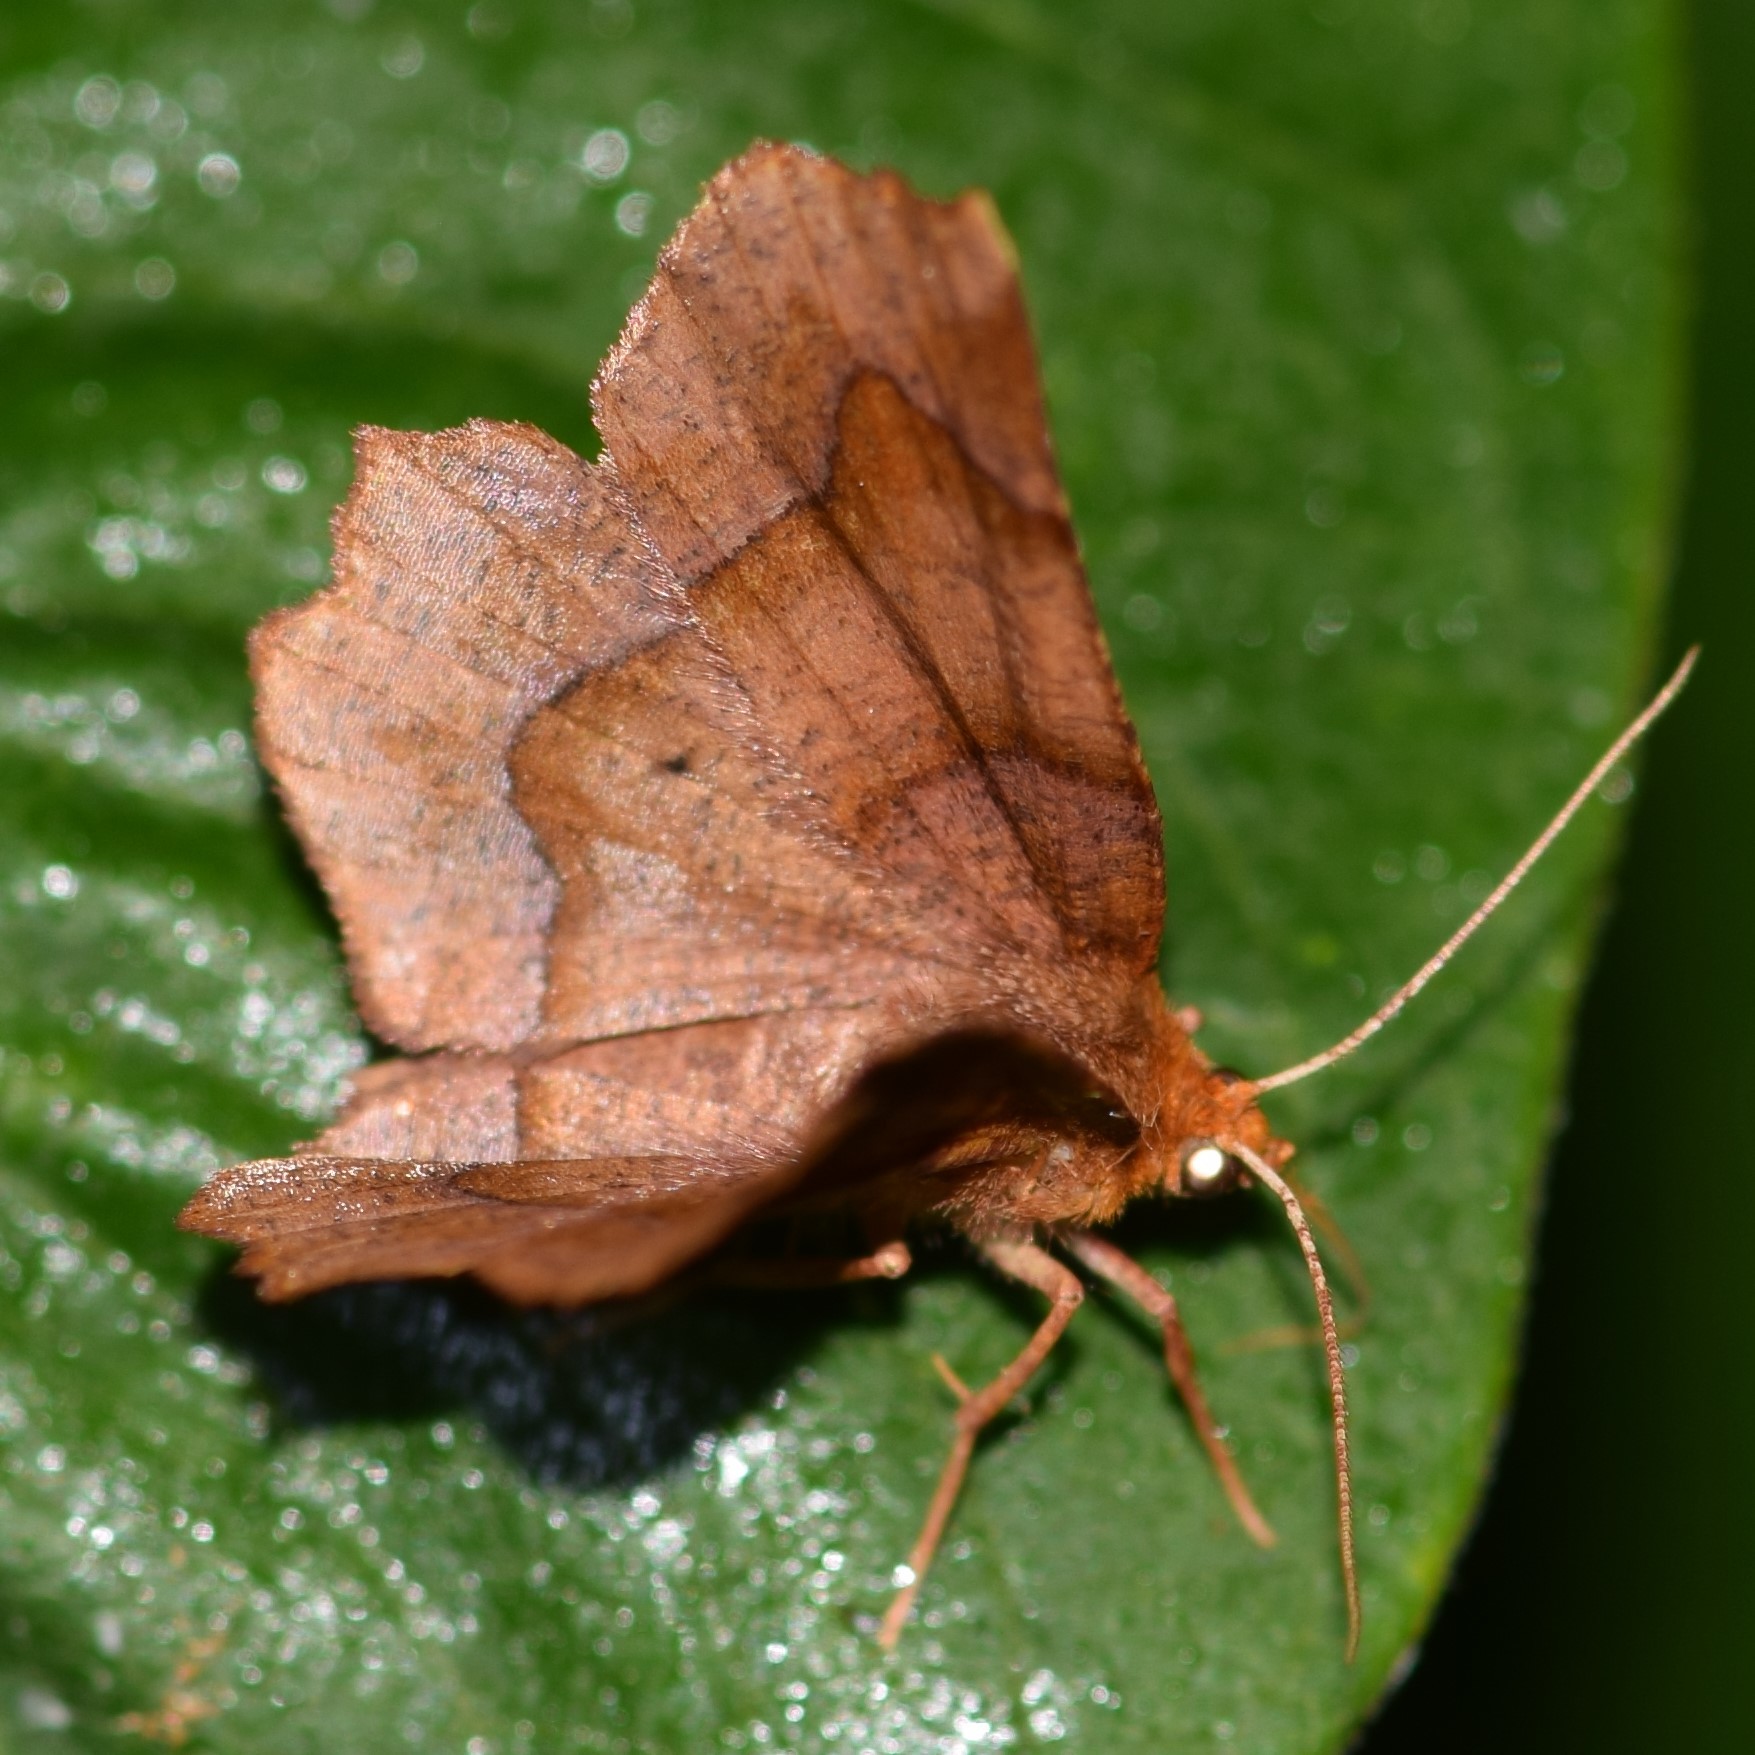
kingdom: Animalia
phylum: Arthropoda
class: Insecta
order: Lepidoptera
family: Geometridae
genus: Metarranthis
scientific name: Metarranthis homuraria
